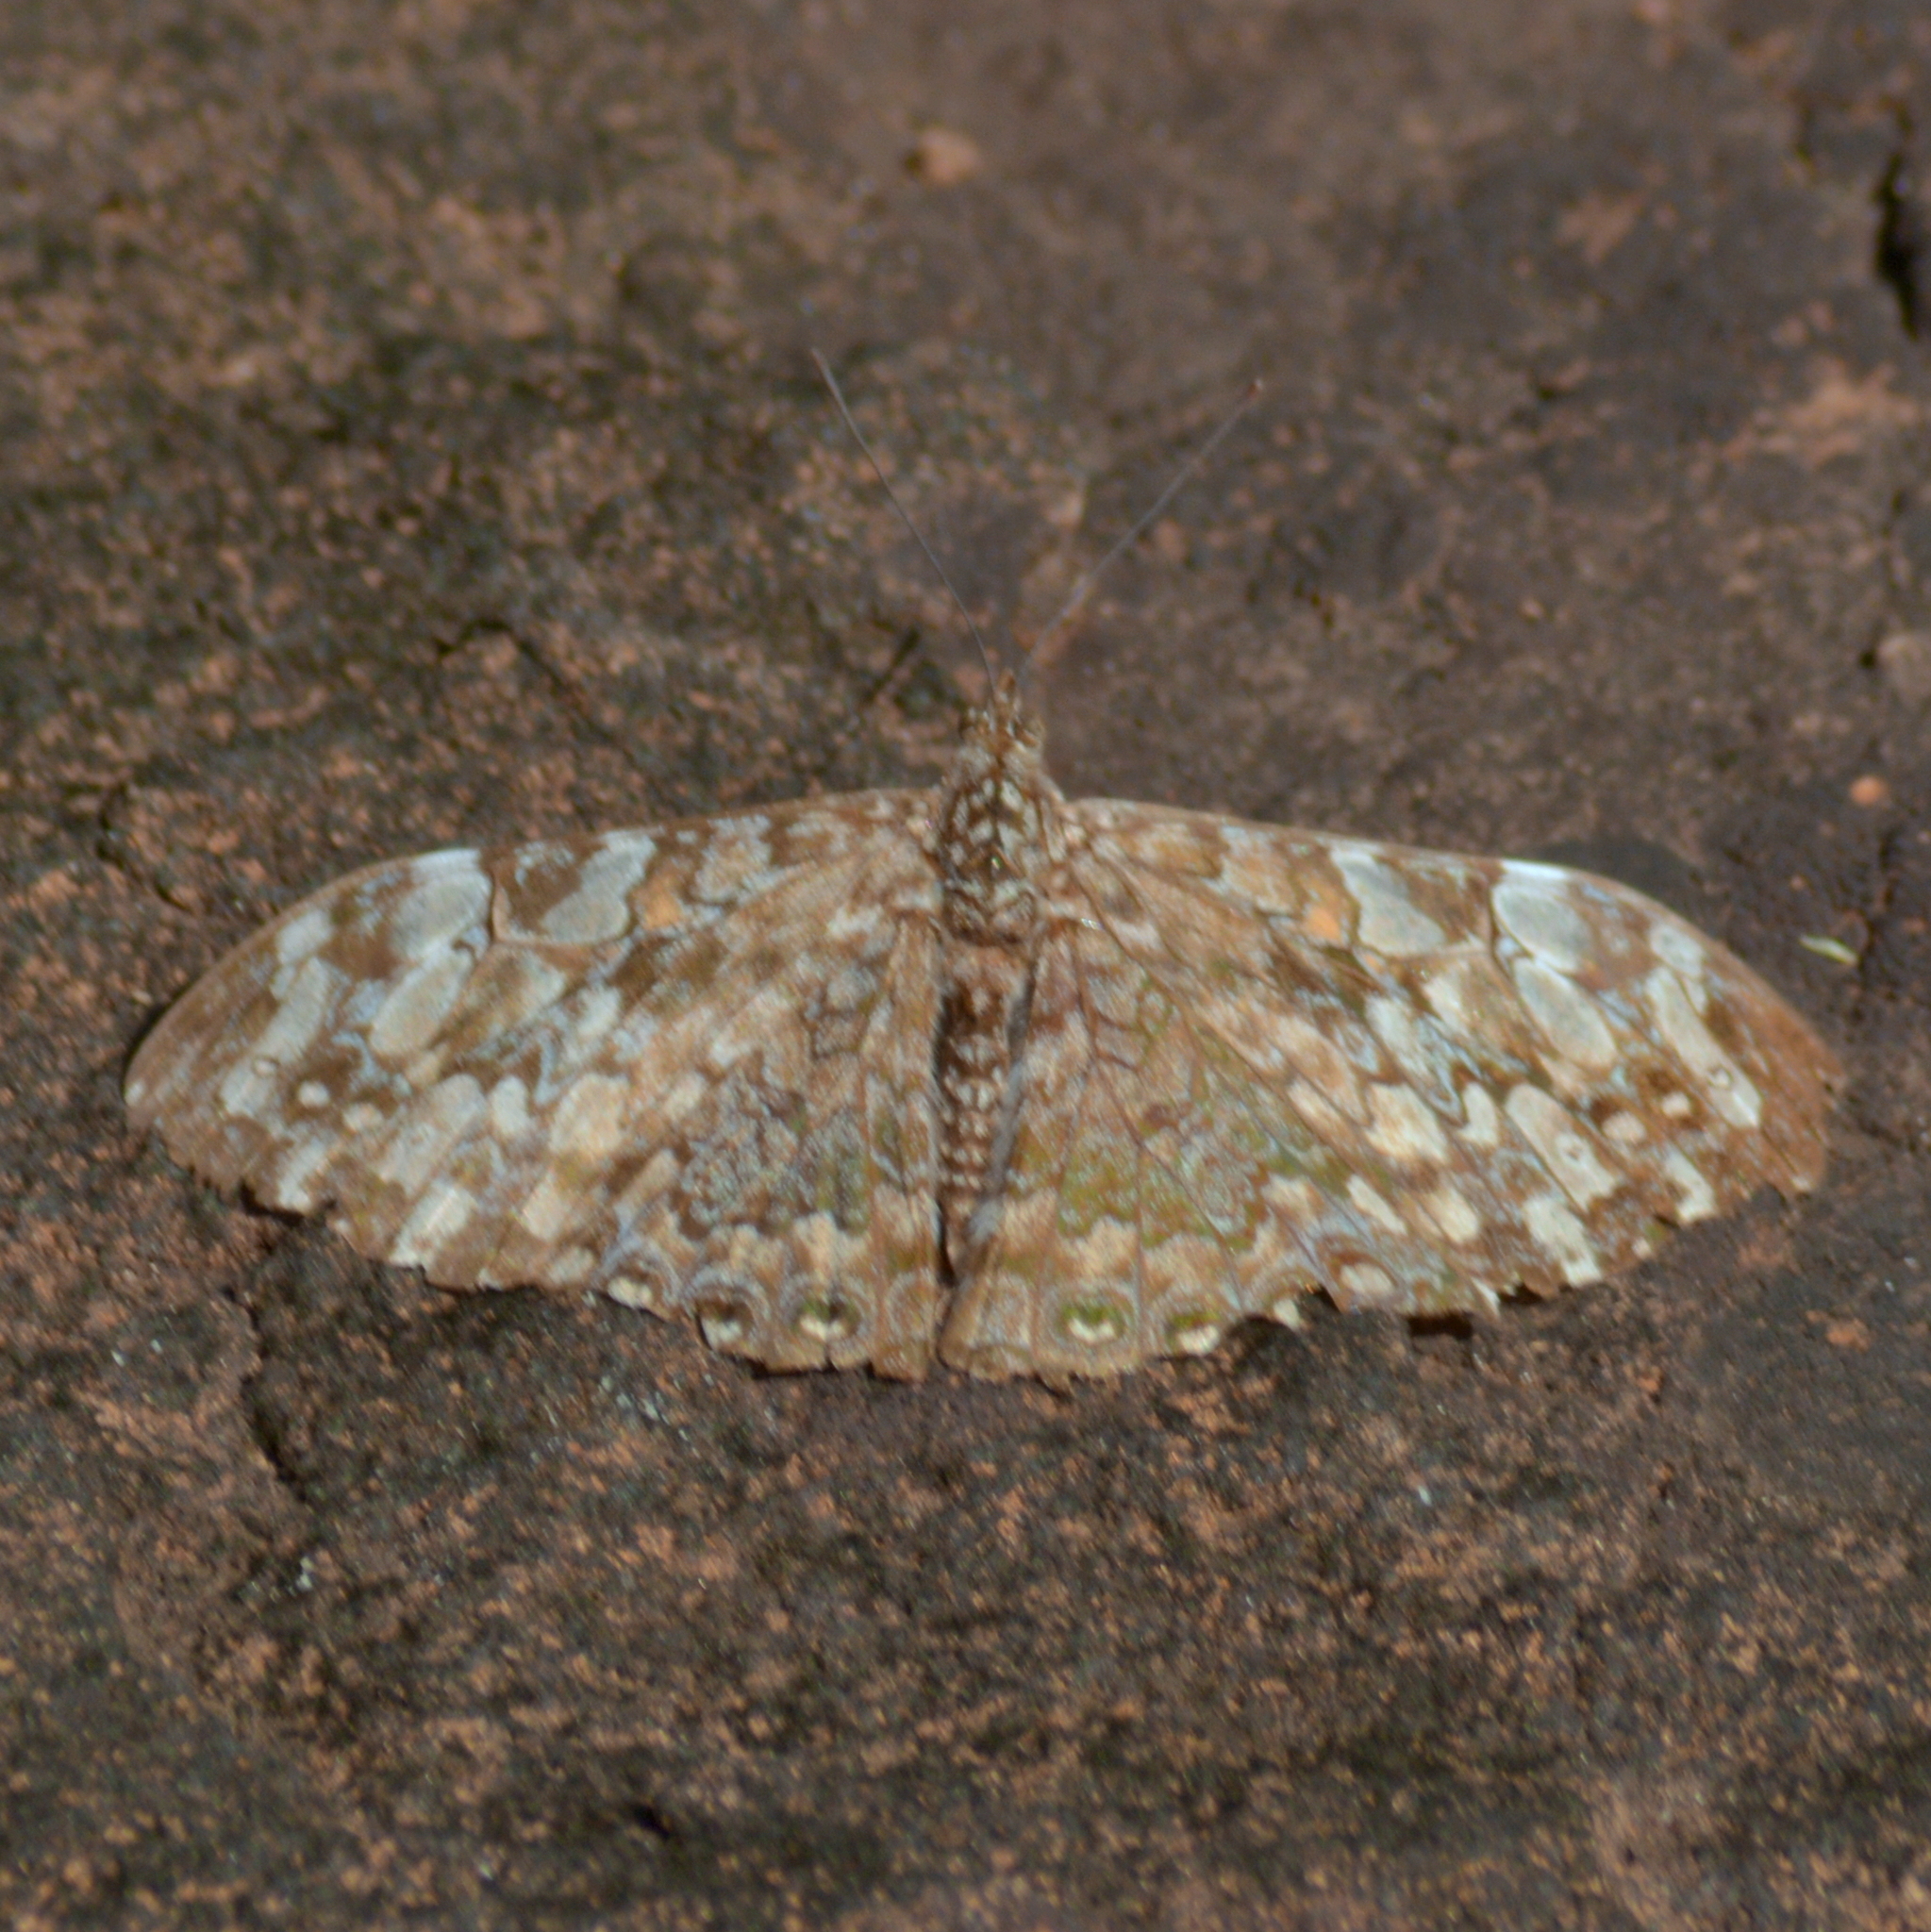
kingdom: Animalia
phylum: Arthropoda
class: Insecta
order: Lepidoptera
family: Nymphalidae
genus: Hamadryas
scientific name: Hamadryas epinome
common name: Epinome cracker
